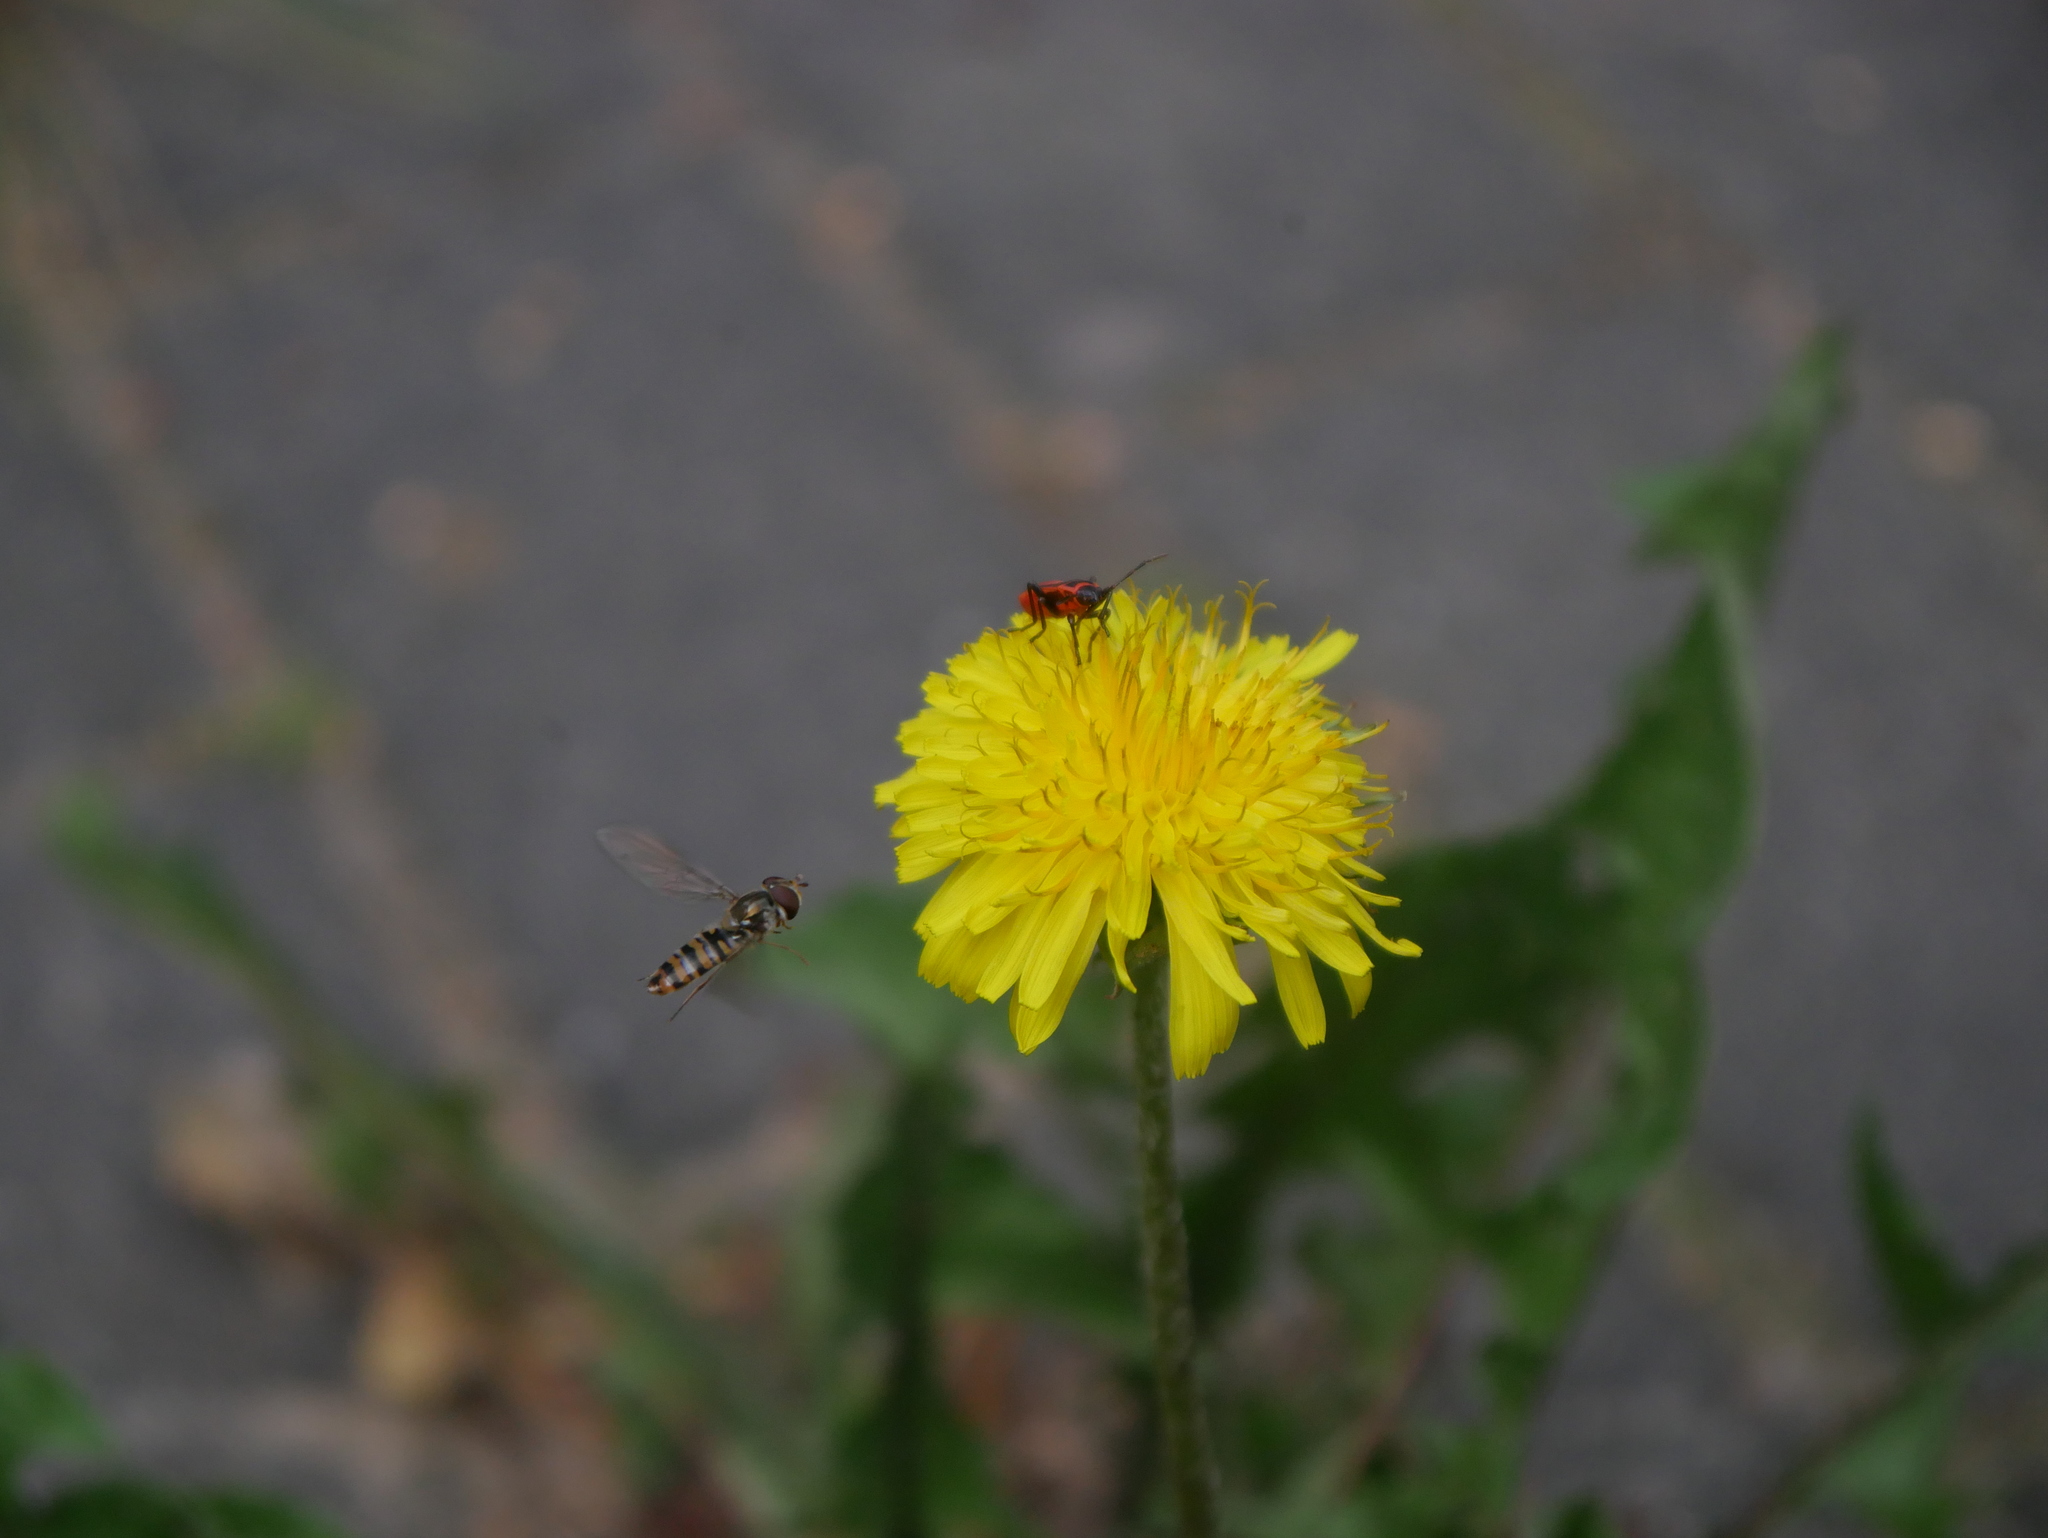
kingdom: Plantae
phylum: Tracheophyta
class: Magnoliopsida
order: Asterales
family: Asteraceae
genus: Taraxacum
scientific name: Taraxacum officinale
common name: Common dandelion
